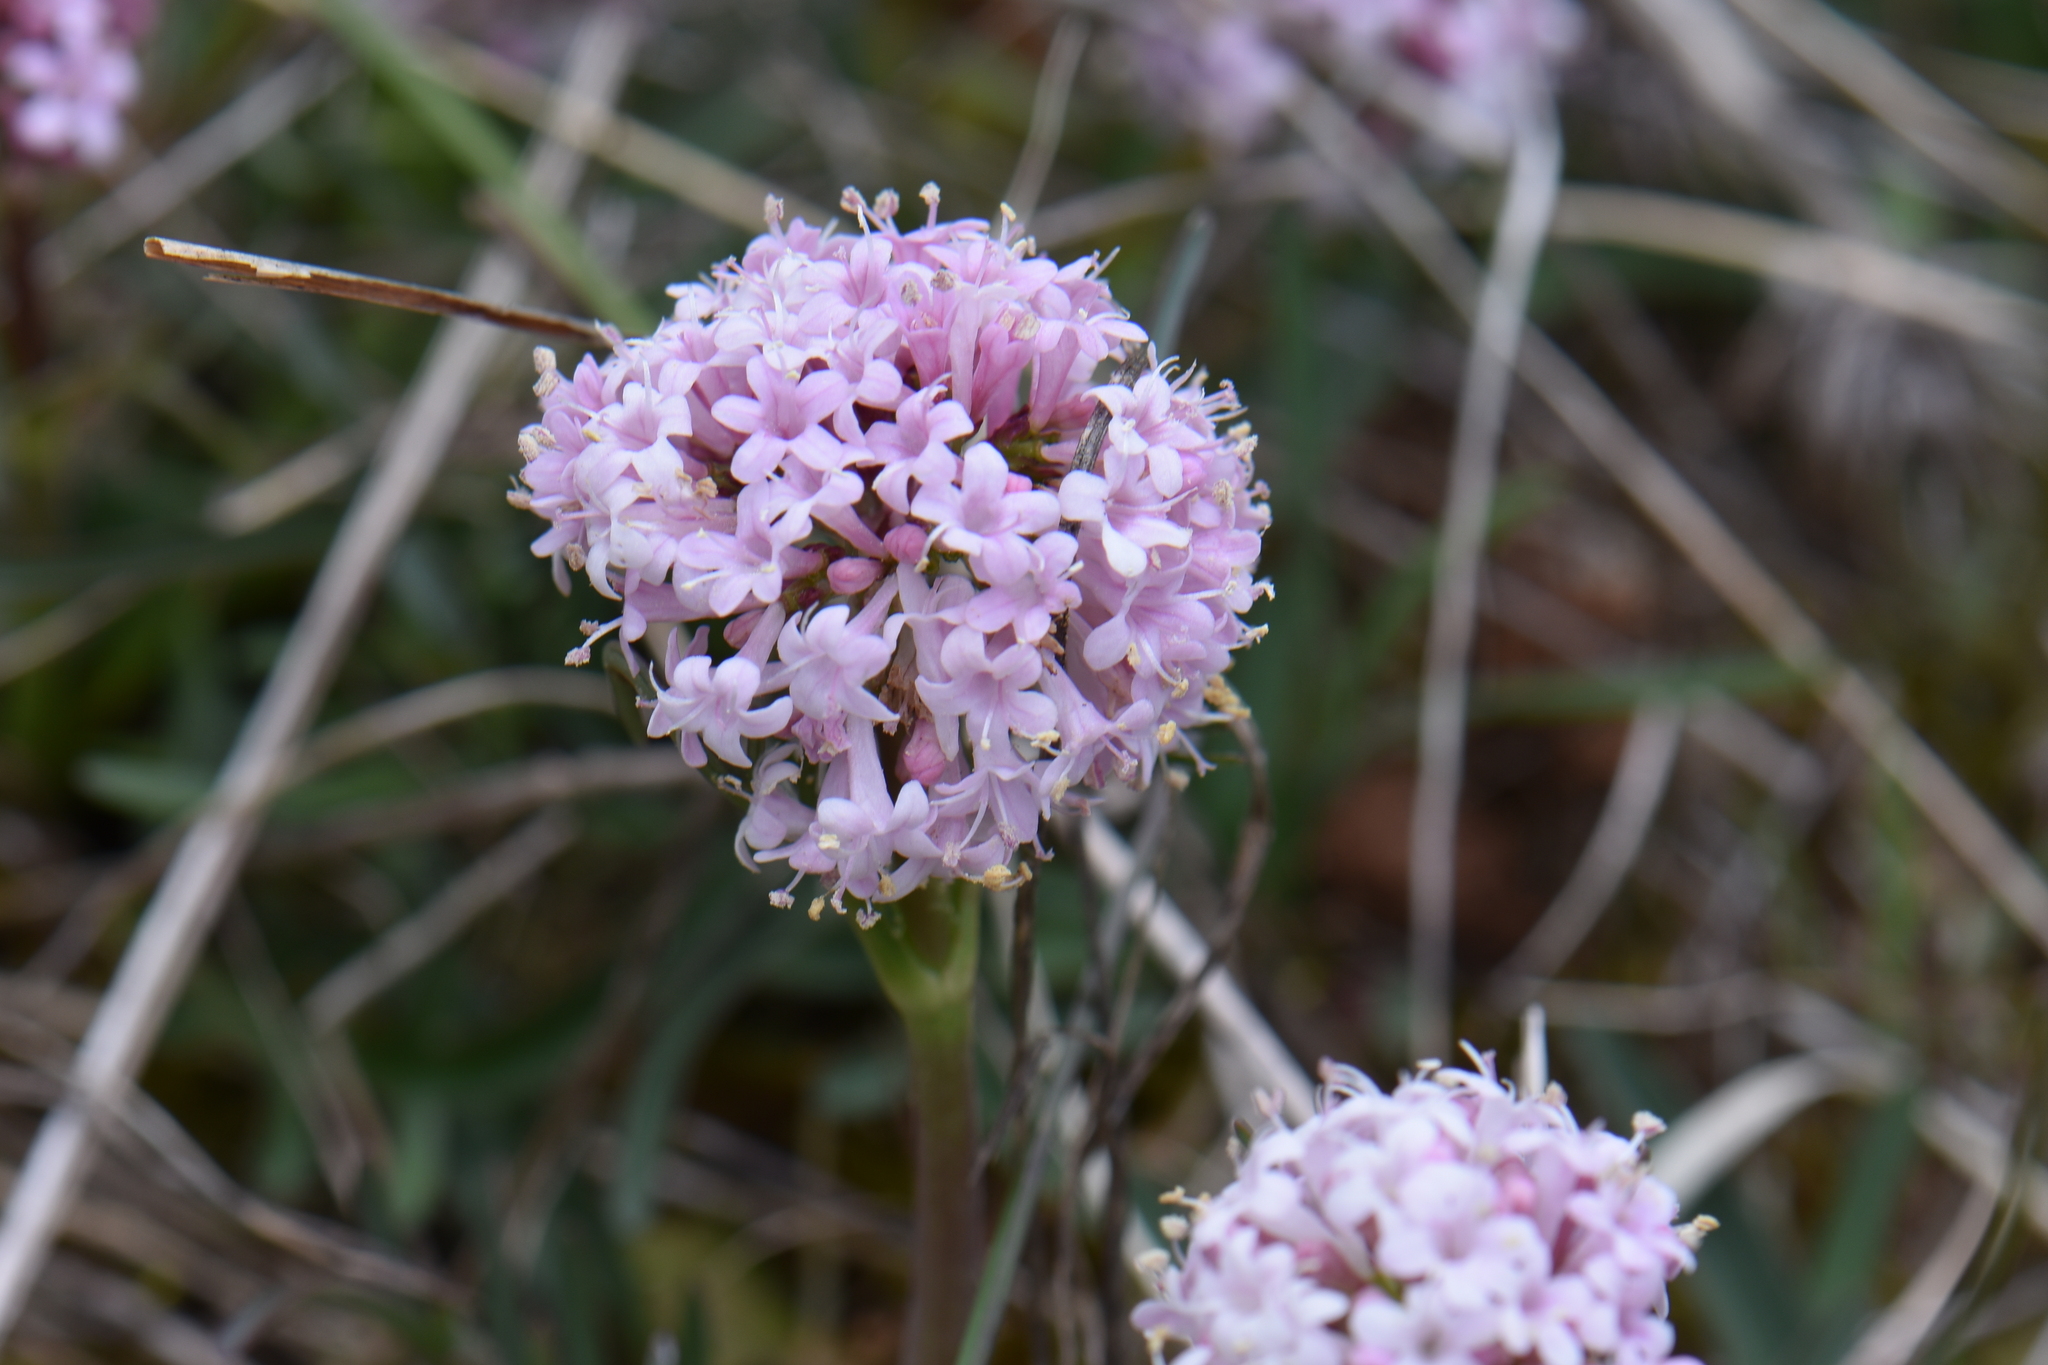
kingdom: Plantae
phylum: Tracheophyta
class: Magnoliopsida
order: Dipsacales
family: Caprifoliaceae
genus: Valeriana
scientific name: Valeriana tuberosa
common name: Tuberous valerian
